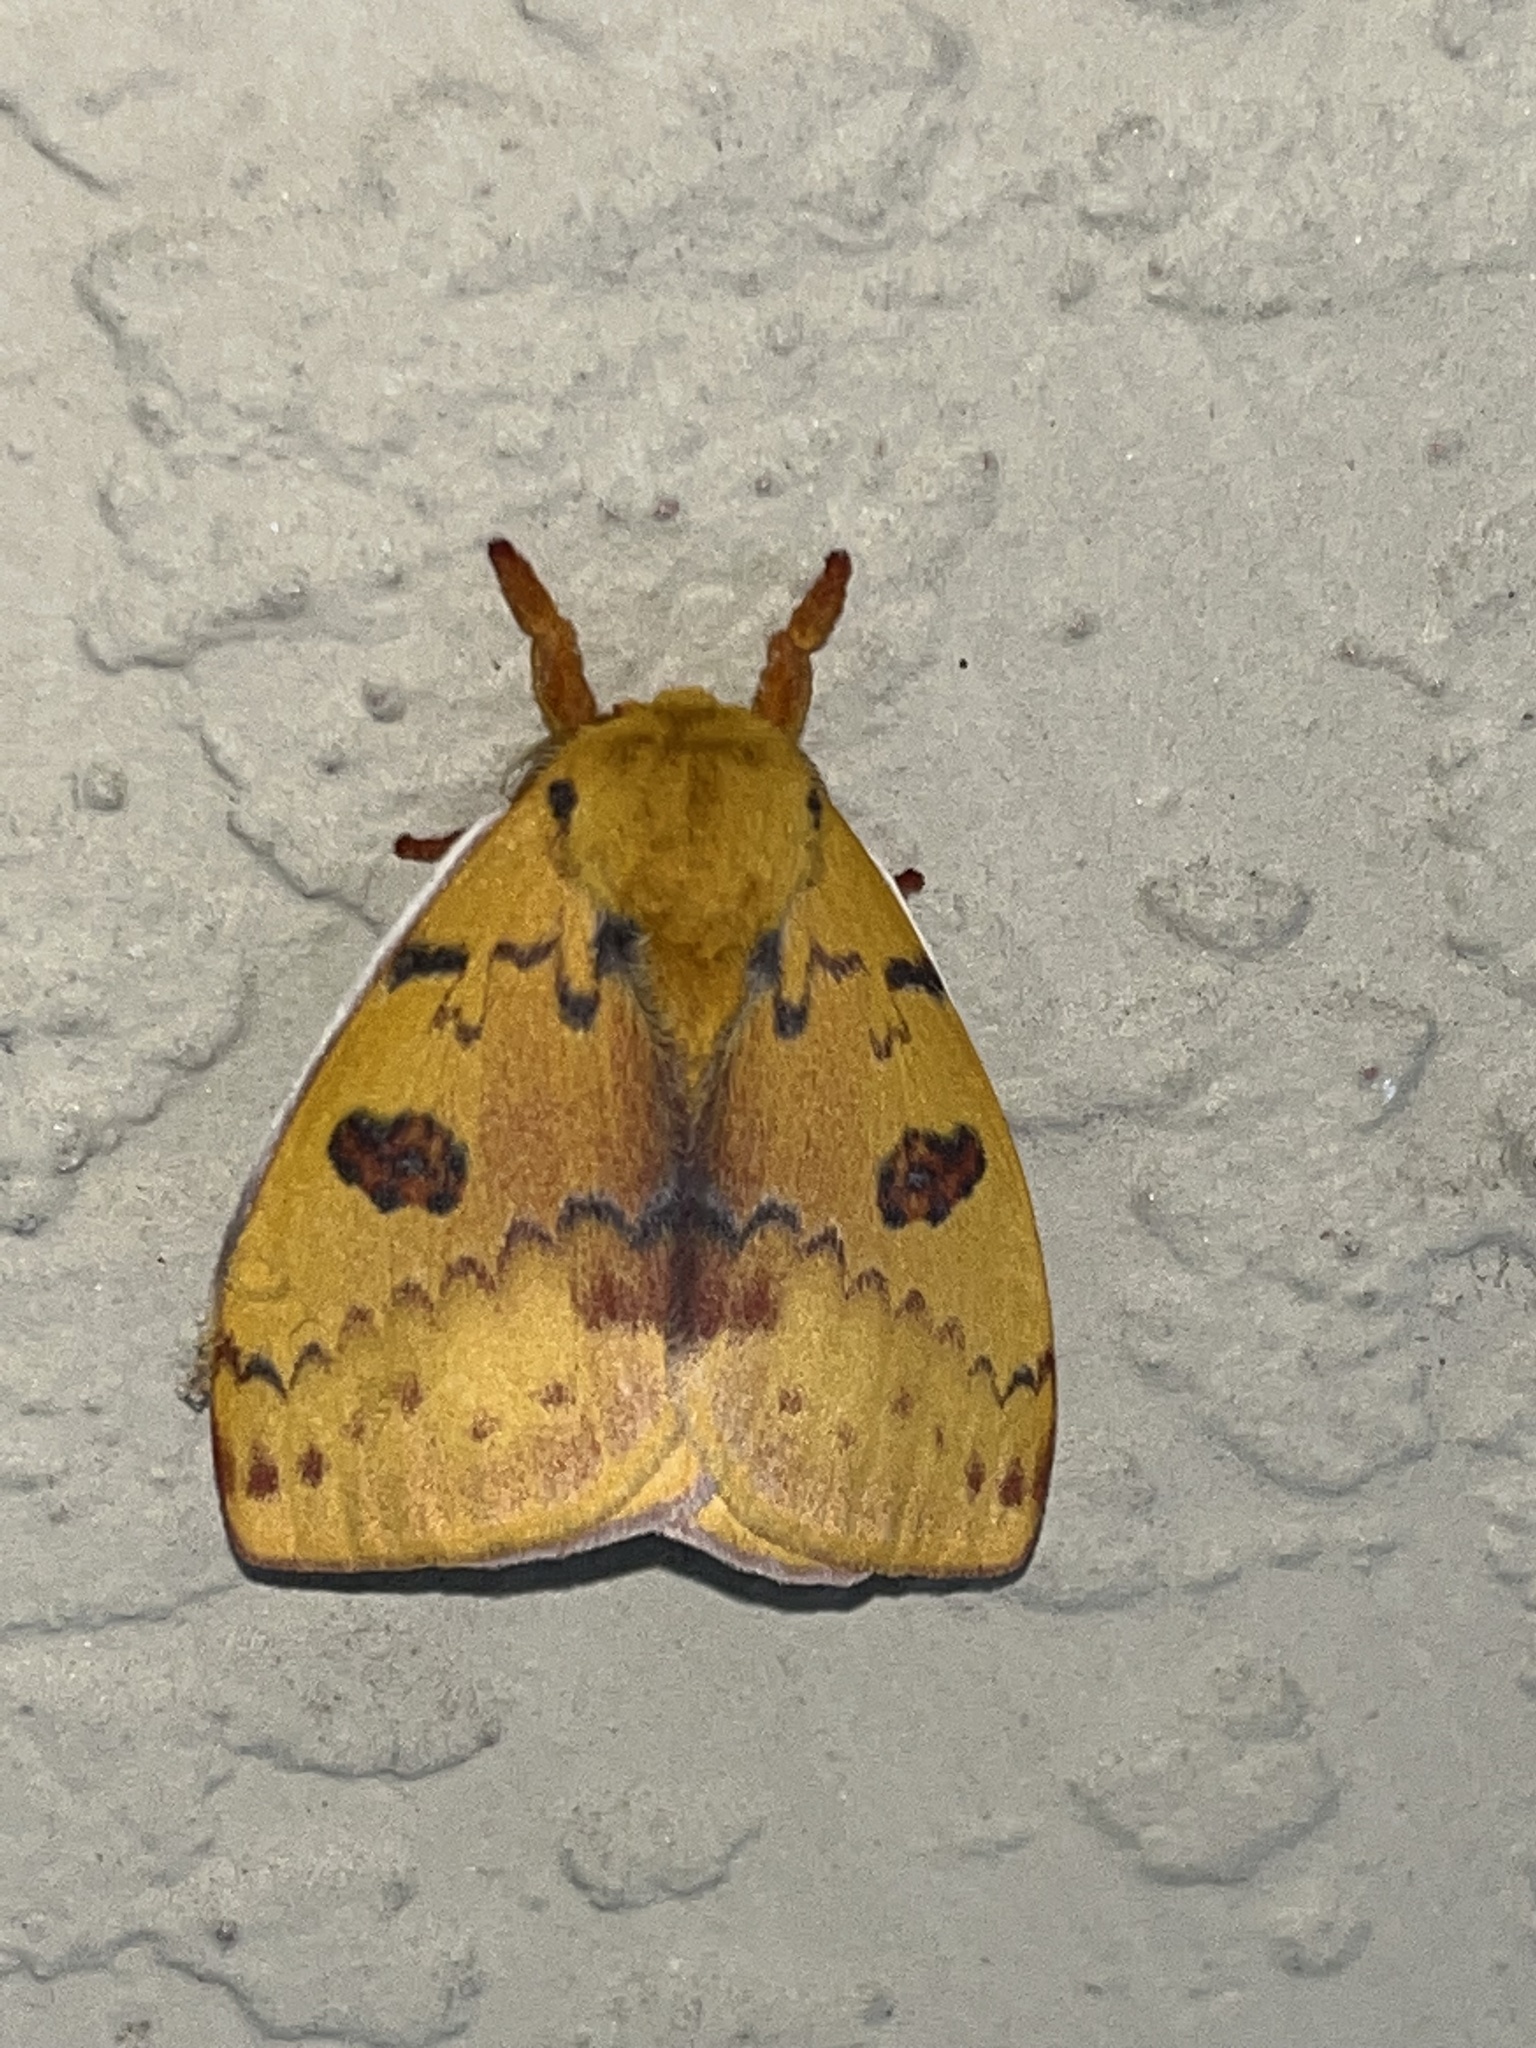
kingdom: Animalia
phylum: Arthropoda
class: Insecta
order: Lepidoptera
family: Saturniidae
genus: Automeris
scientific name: Automeris io
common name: Io moth
